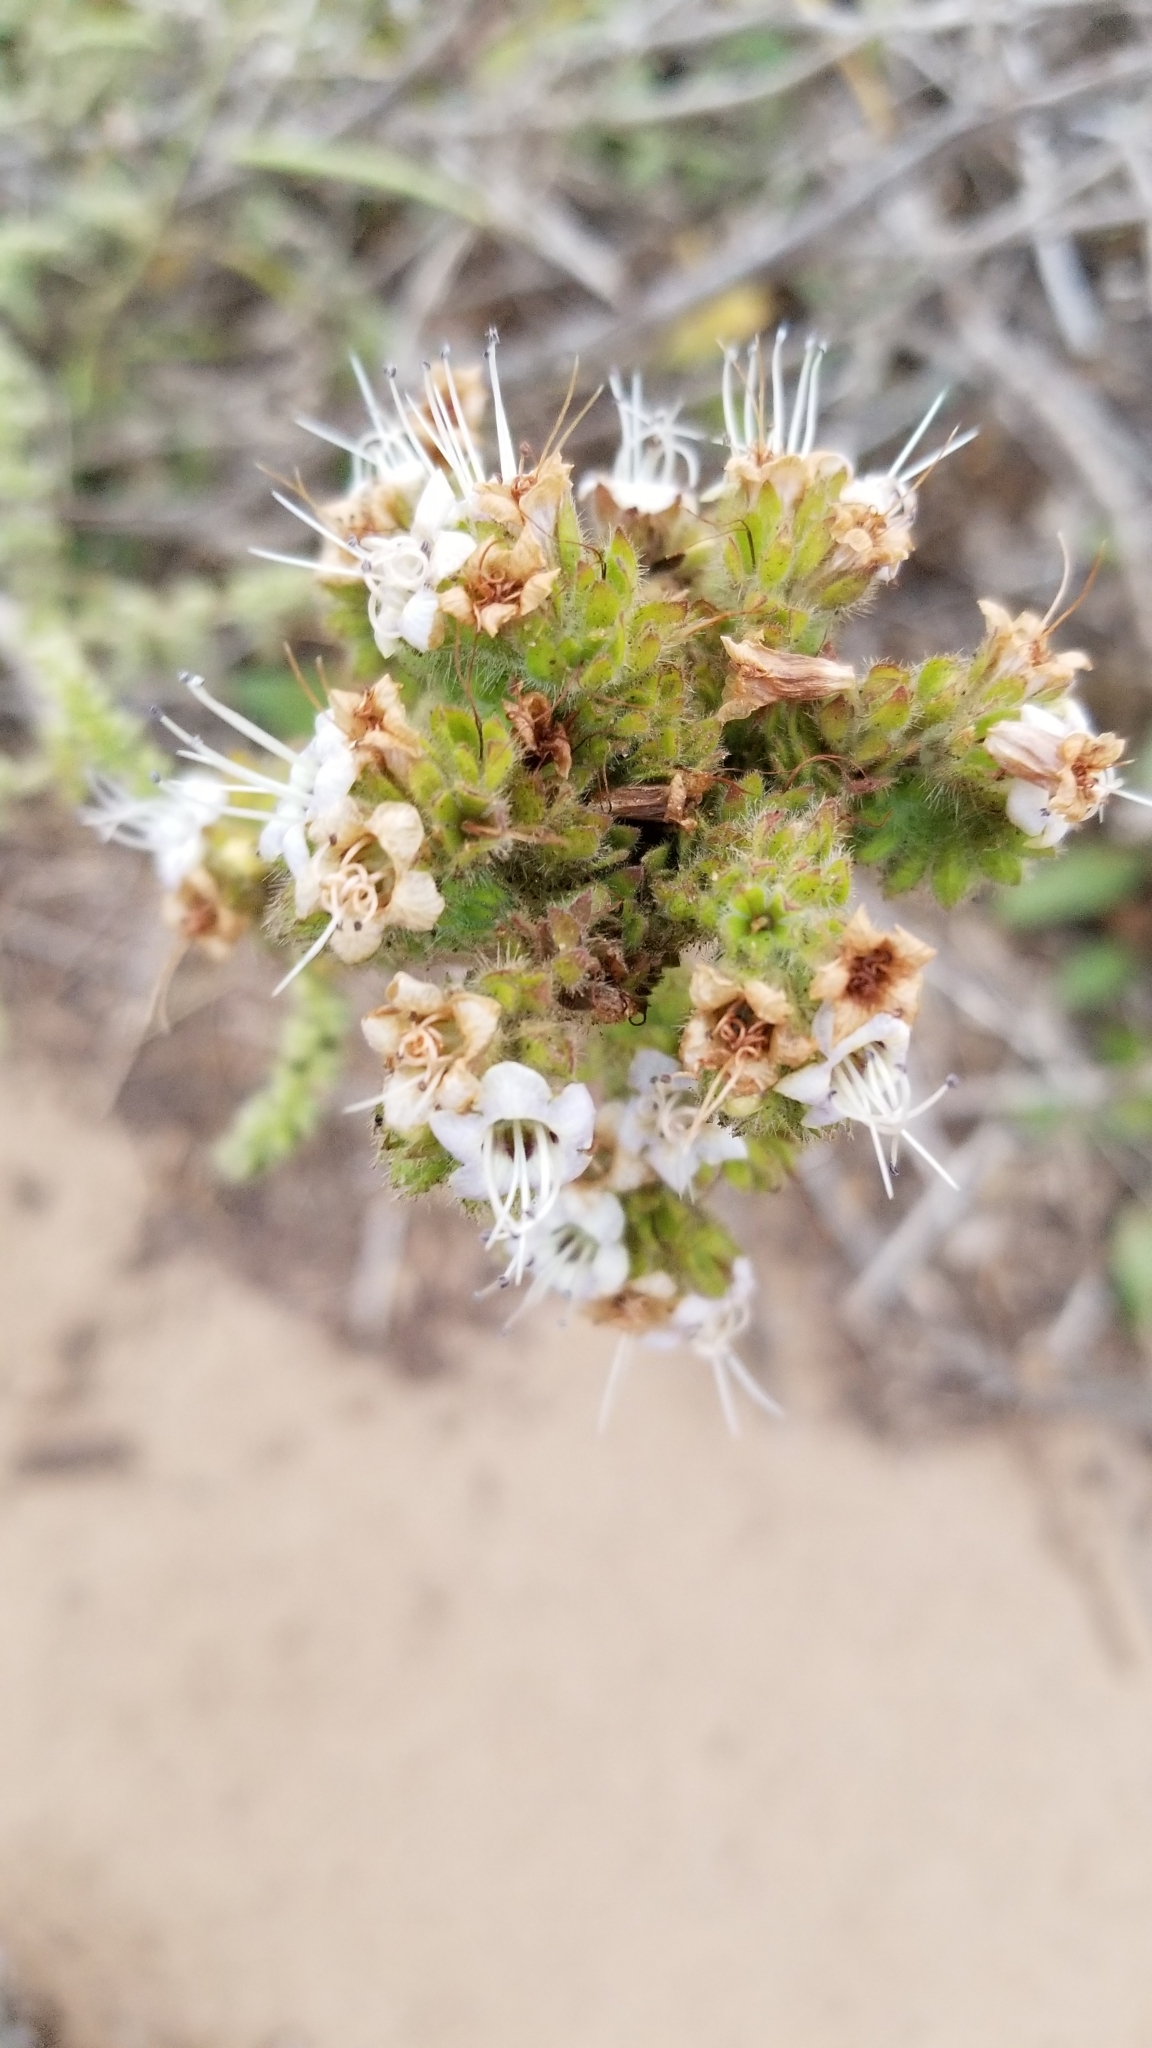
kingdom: Plantae
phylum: Tracheophyta
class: Magnoliopsida
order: Boraginales
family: Hydrophyllaceae
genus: Phacelia
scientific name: Phacelia ramosissima
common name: Branching phacelia
